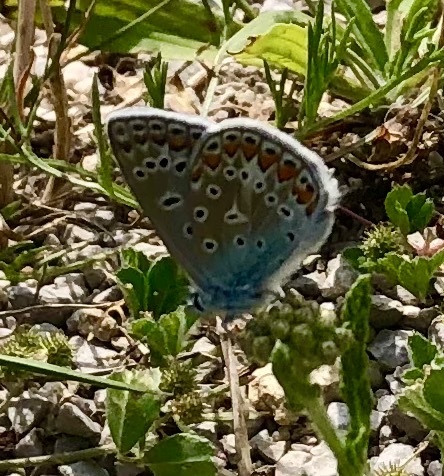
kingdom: Animalia
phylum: Arthropoda
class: Insecta
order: Lepidoptera
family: Lycaenidae
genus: Polyommatus
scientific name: Polyommatus icarus
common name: Common blue
